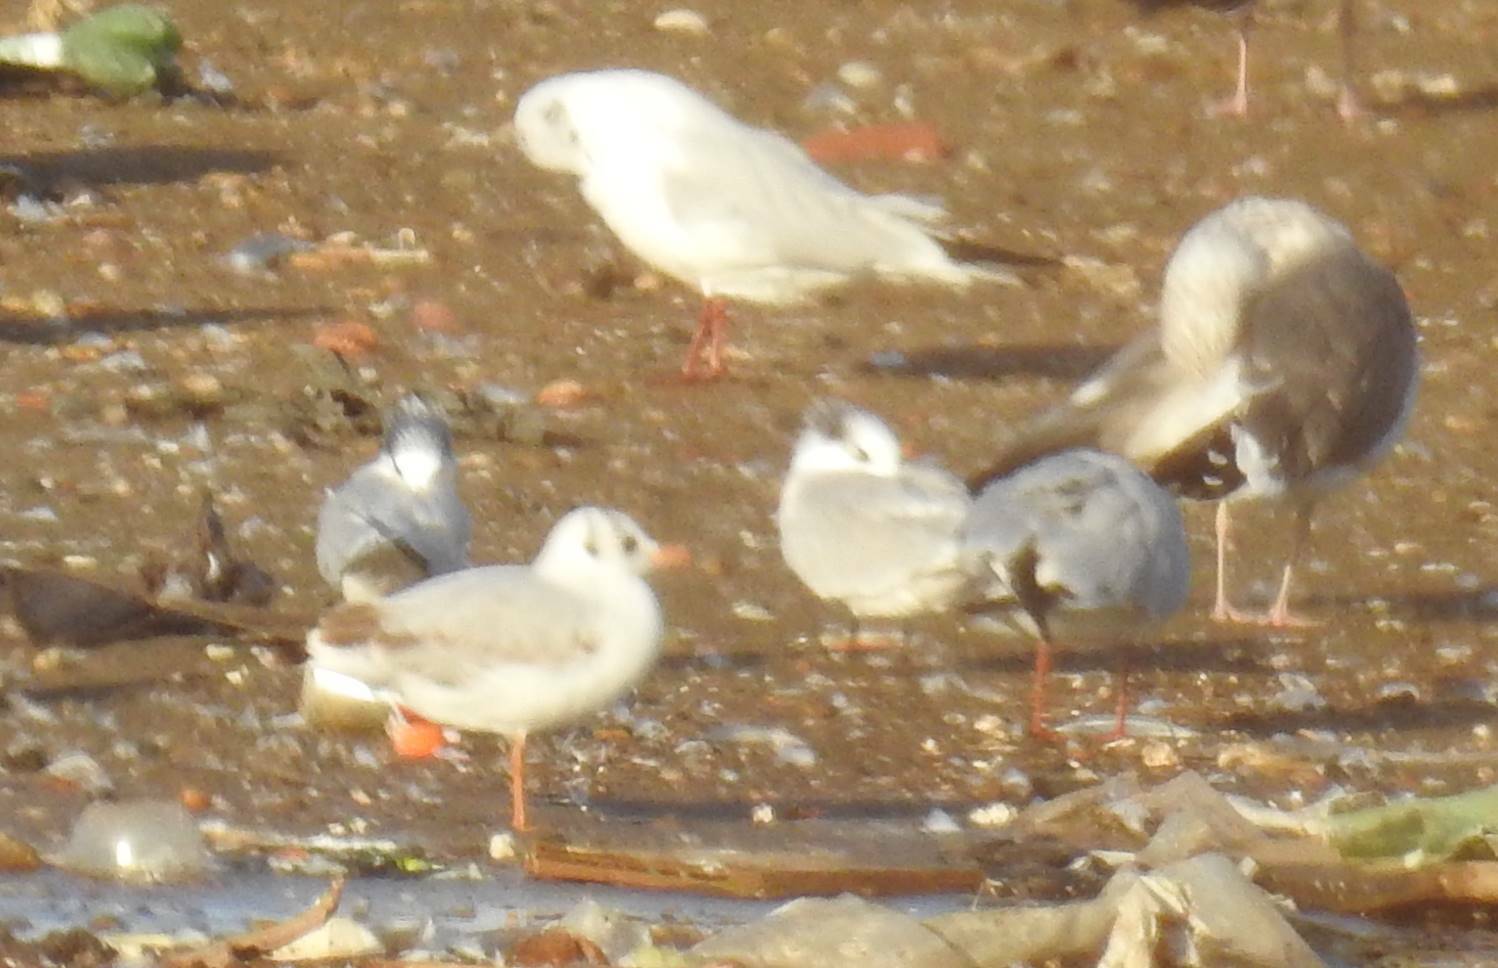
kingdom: Animalia
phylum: Chordata
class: Aves
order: Charadriiformes
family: Laridae
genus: Chroicocephalus
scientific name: Chroicocephalus ridibundus
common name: Black-headed gull
